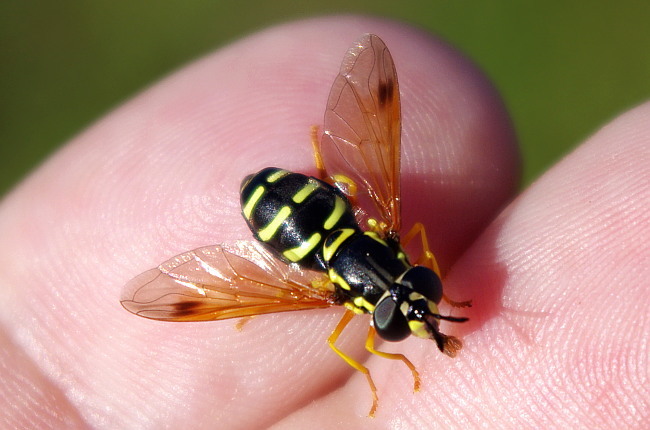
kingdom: Animalia
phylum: Arthropoda
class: Insecta
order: Diptera
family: Syrphidae
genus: Chrysotoxum
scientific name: Chrysotoxum festivum
